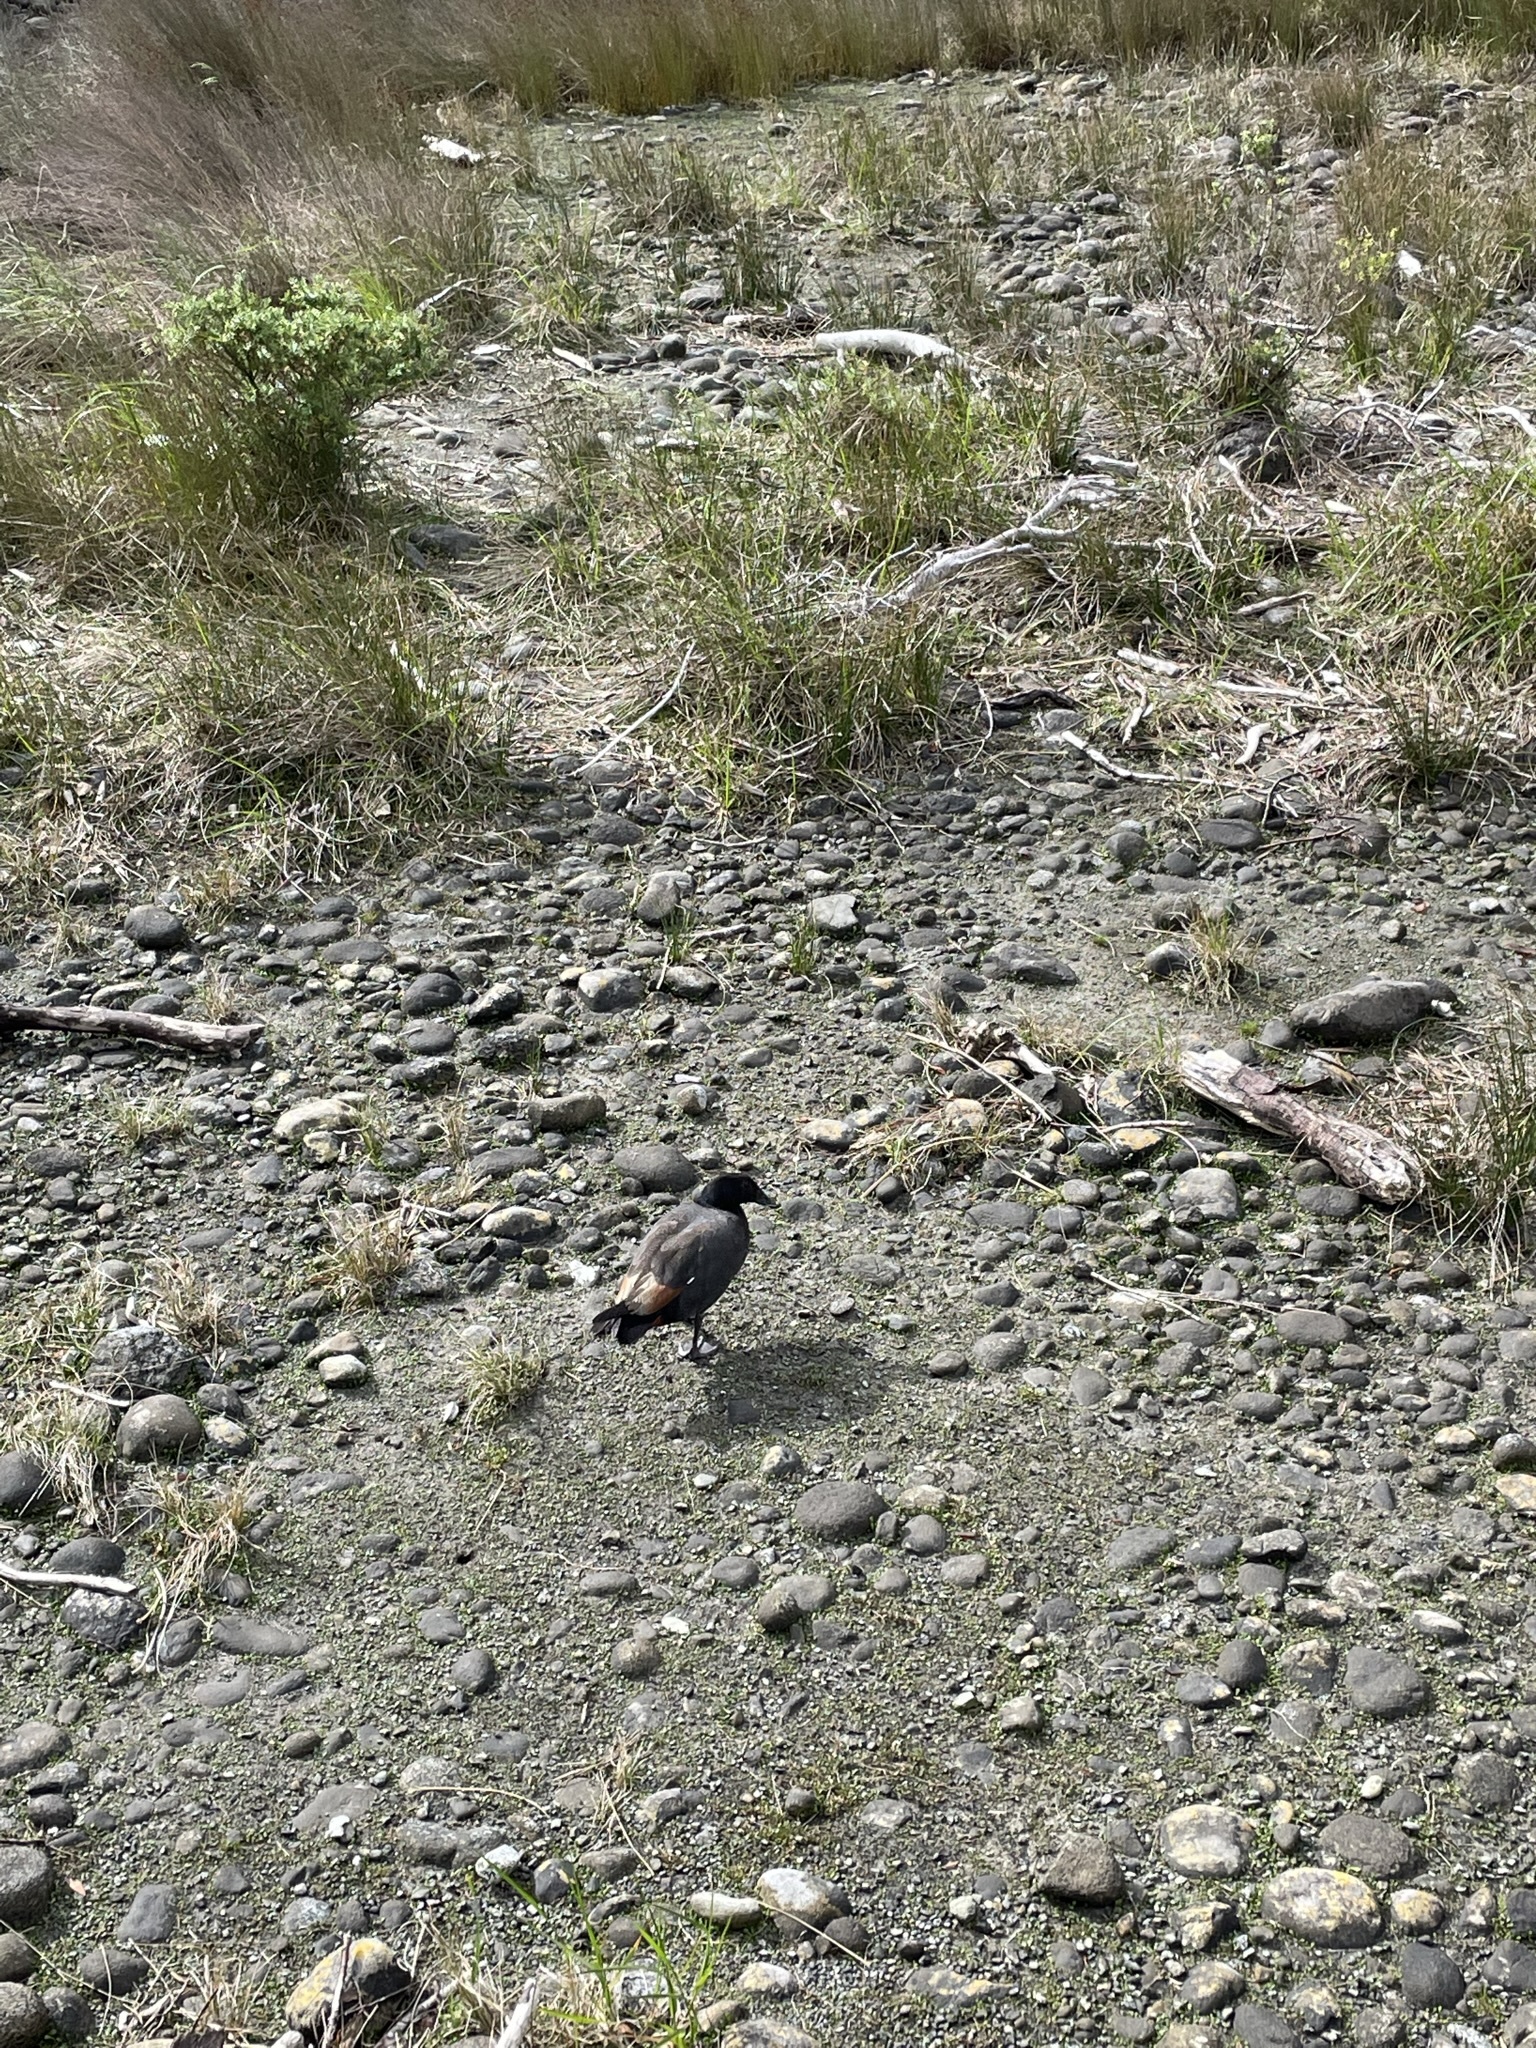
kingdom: Animalia
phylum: Chordata
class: Aves
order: Anseriformes
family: Anatidae
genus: Tadorna
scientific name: Tadorna variegata
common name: Paradise shelduck
